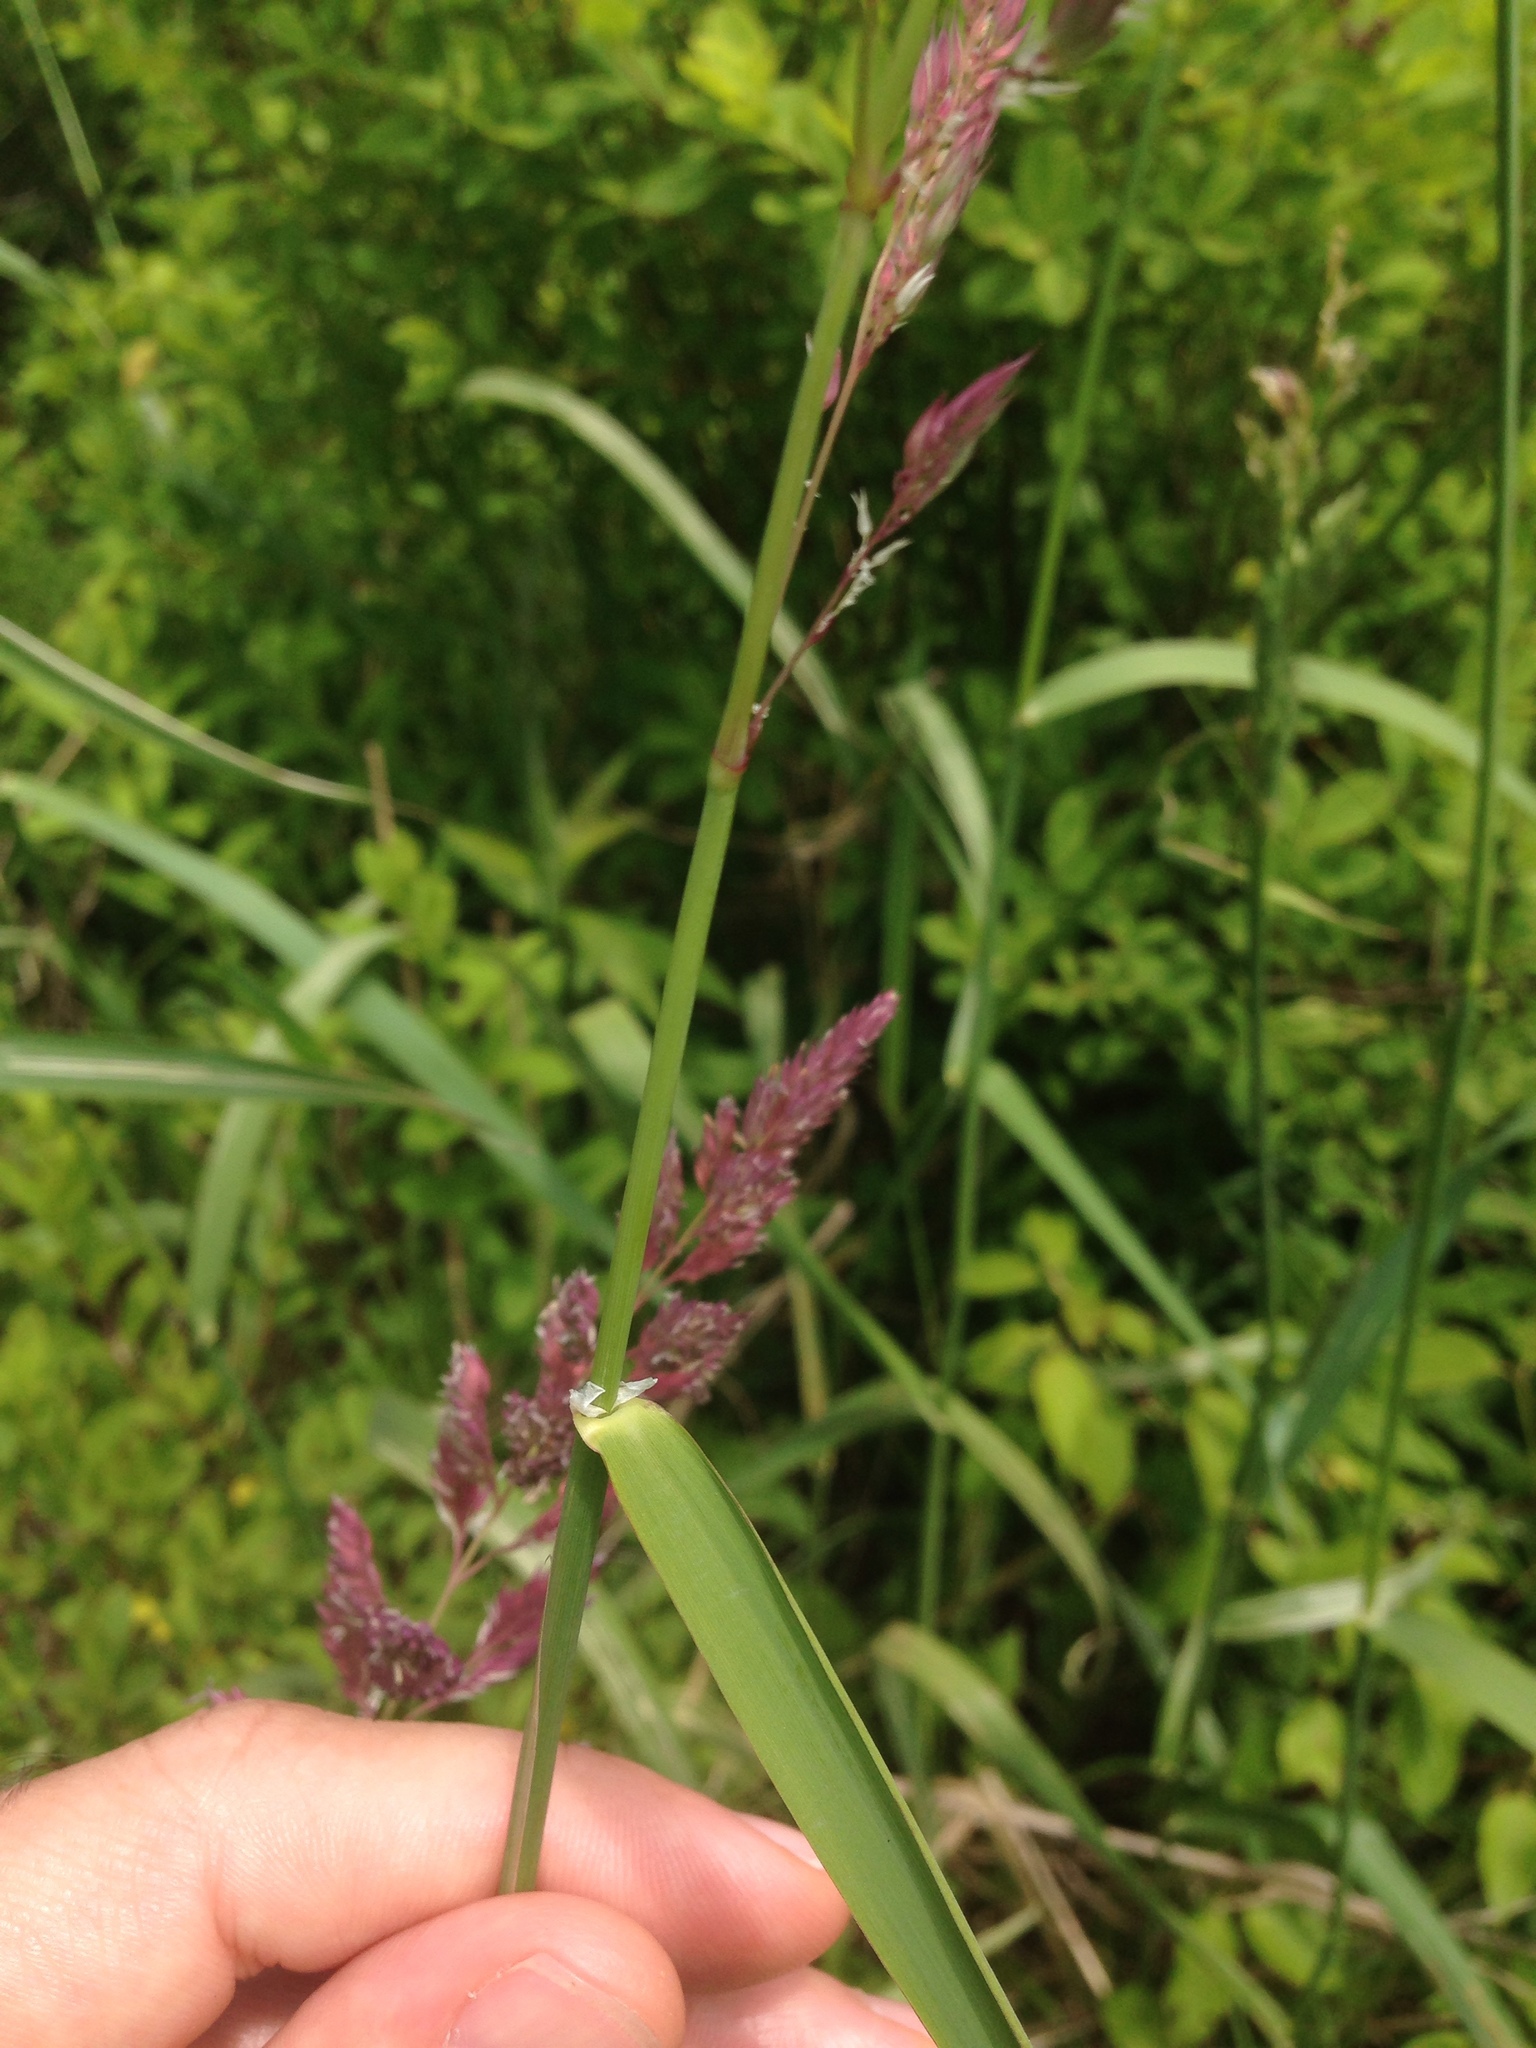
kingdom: Plantae
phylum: Tracheophyta
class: Liliopsida
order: Poales
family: Poaceae
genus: Phalaris
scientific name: Phalaris arundinacea
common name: Reed canary-grass
